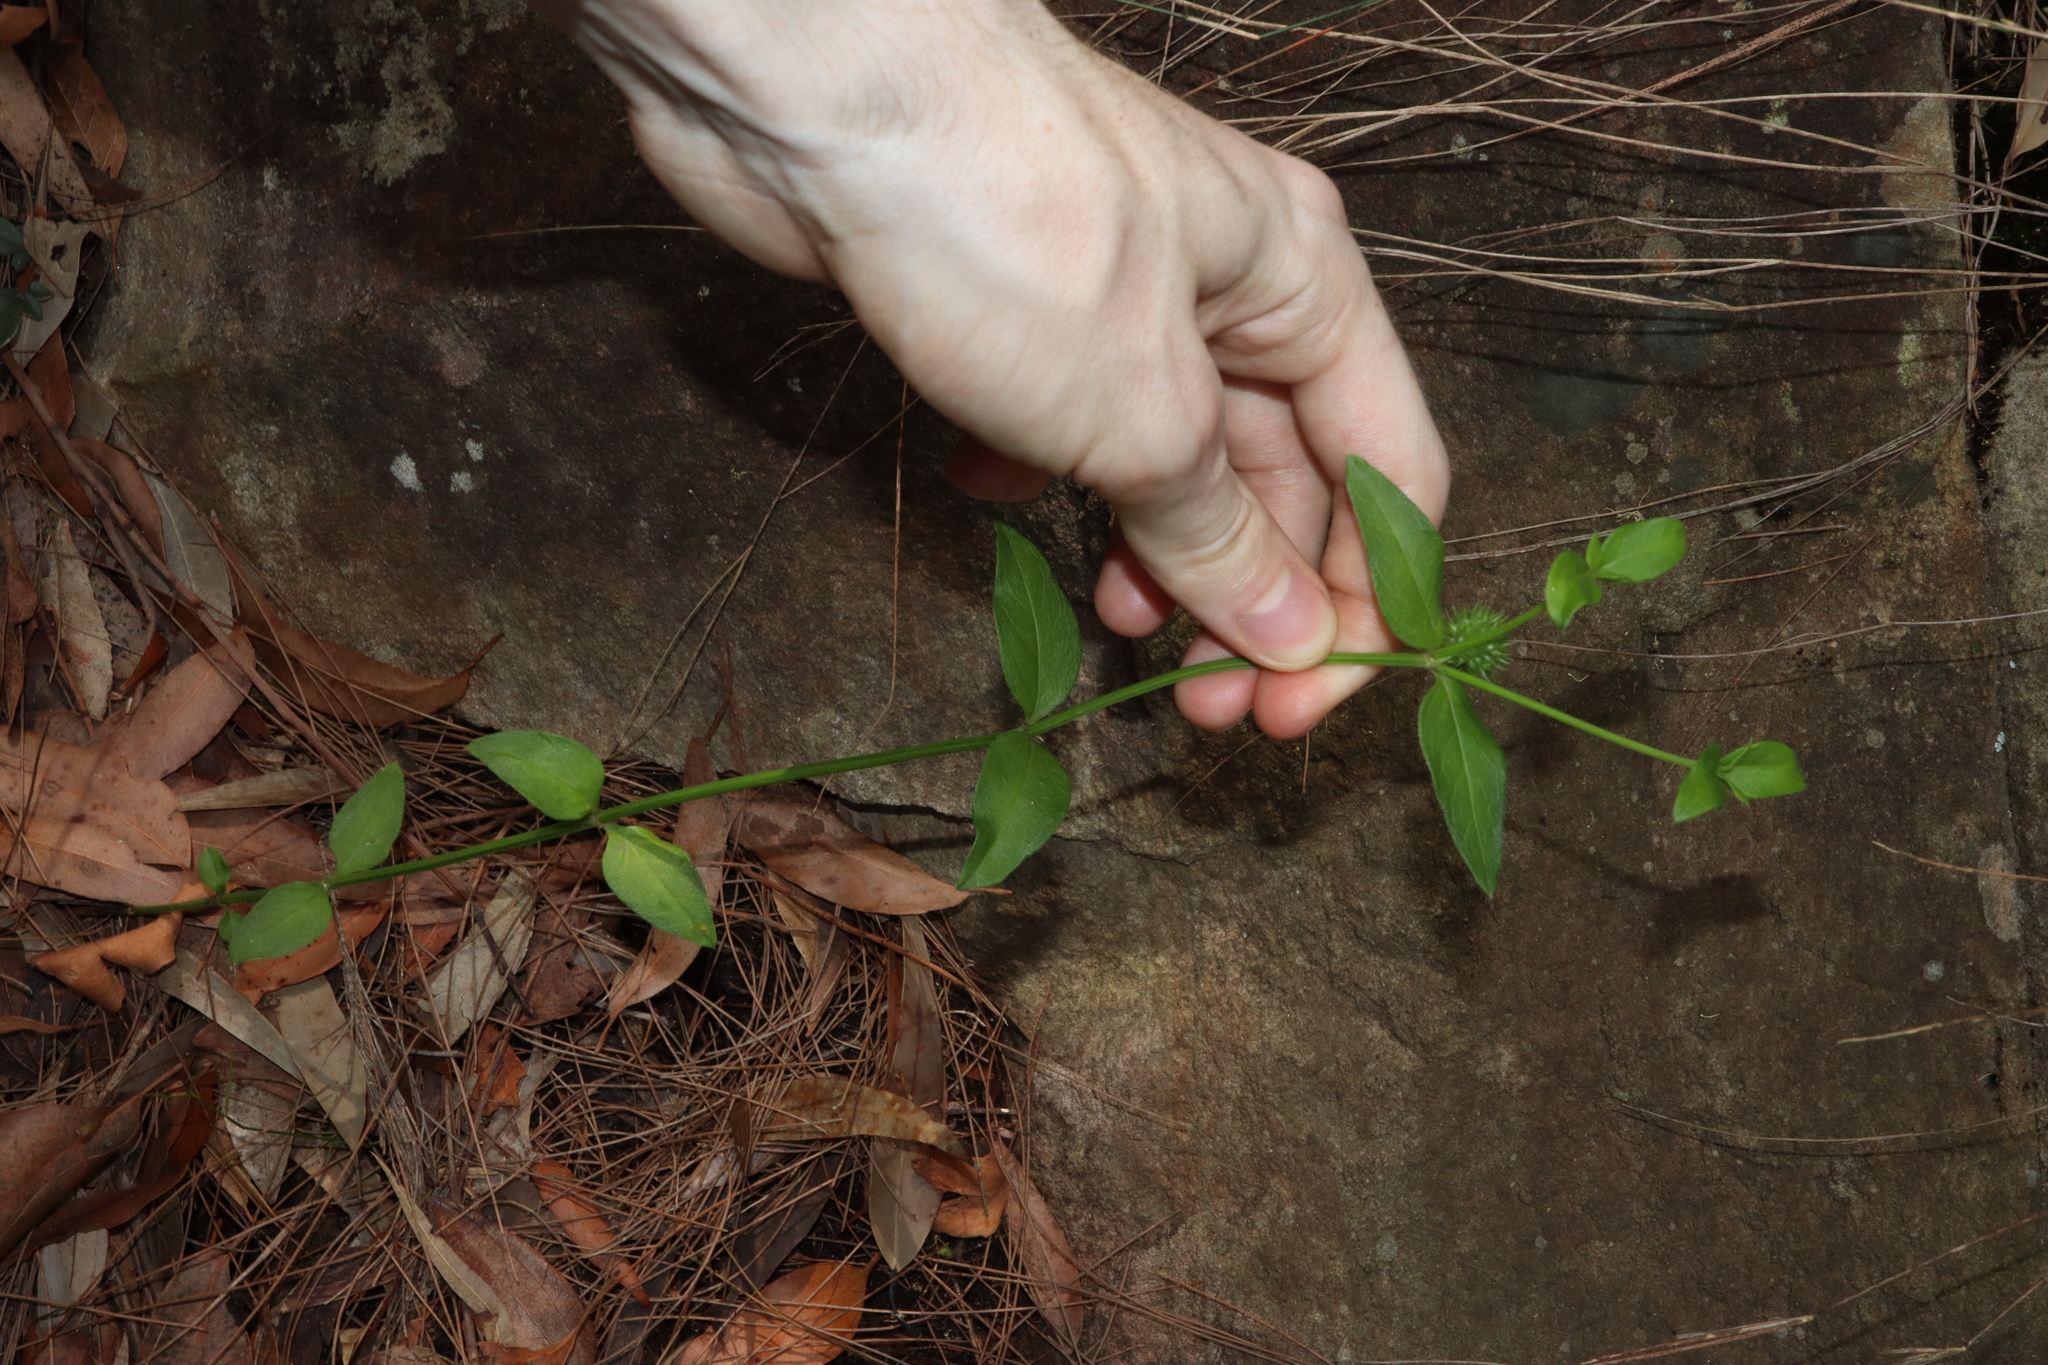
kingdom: Plantae
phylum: Tracheophyta
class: Magnoliopsida
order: Gentianales
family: Rubiaceae
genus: Opercularia
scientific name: Opercularia aspera
